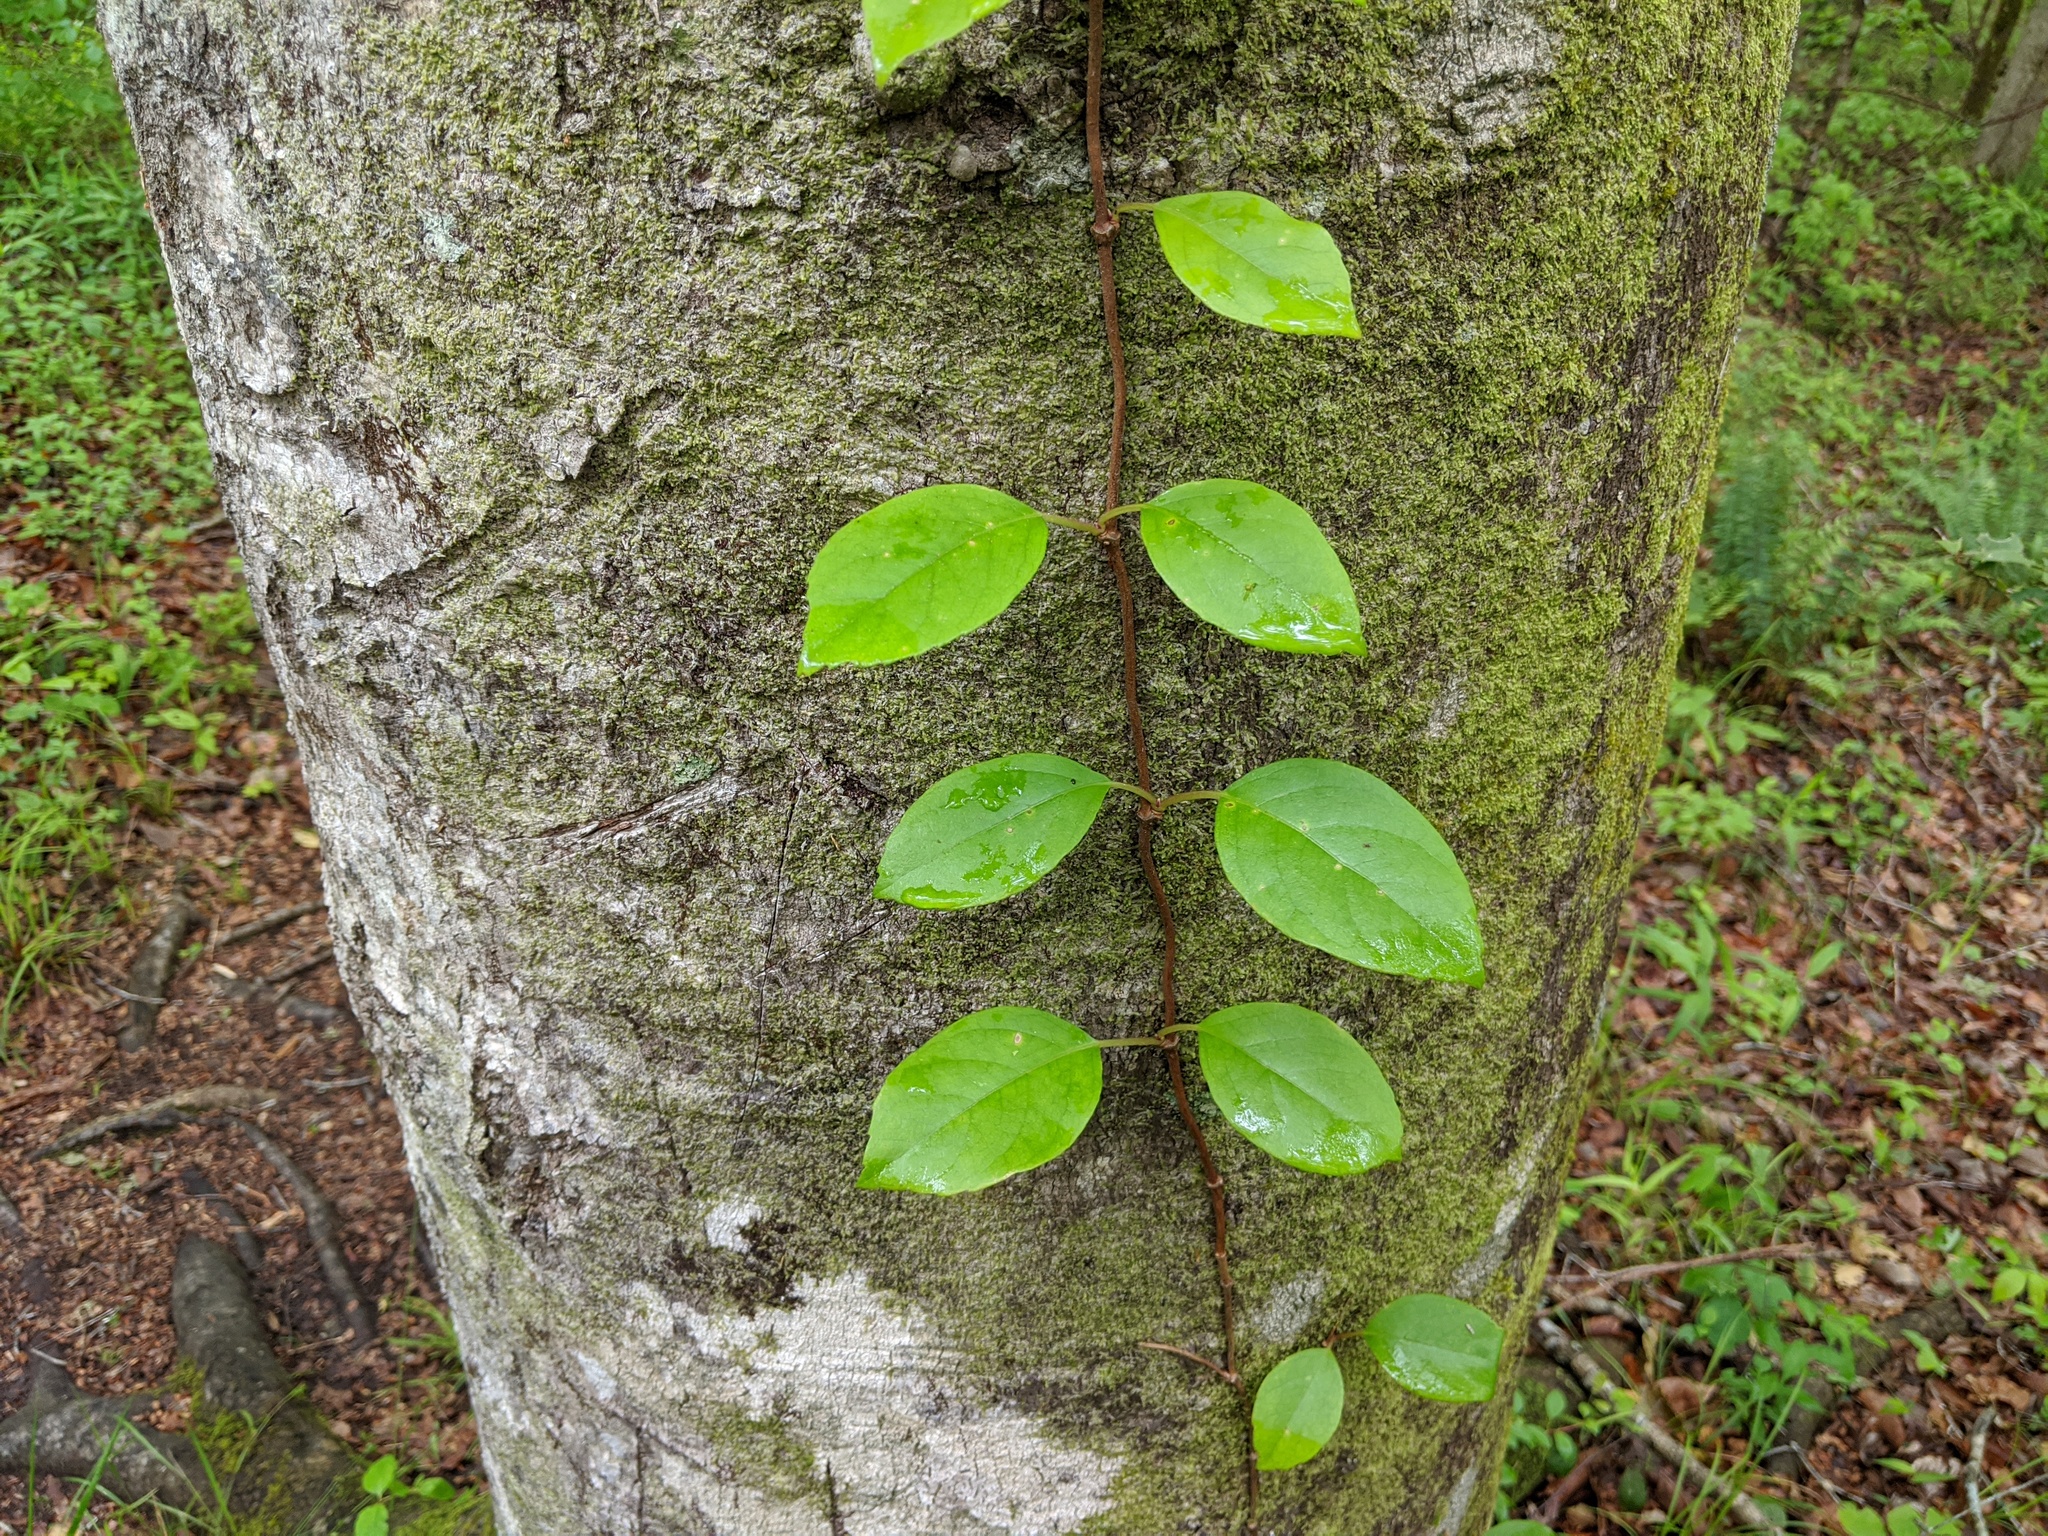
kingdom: Plantae
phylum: Tracheophyta
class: Magnoliopsida
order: Cornales
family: Hydrangeaceae
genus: Hydrangea
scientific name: Hydrangea barbara
